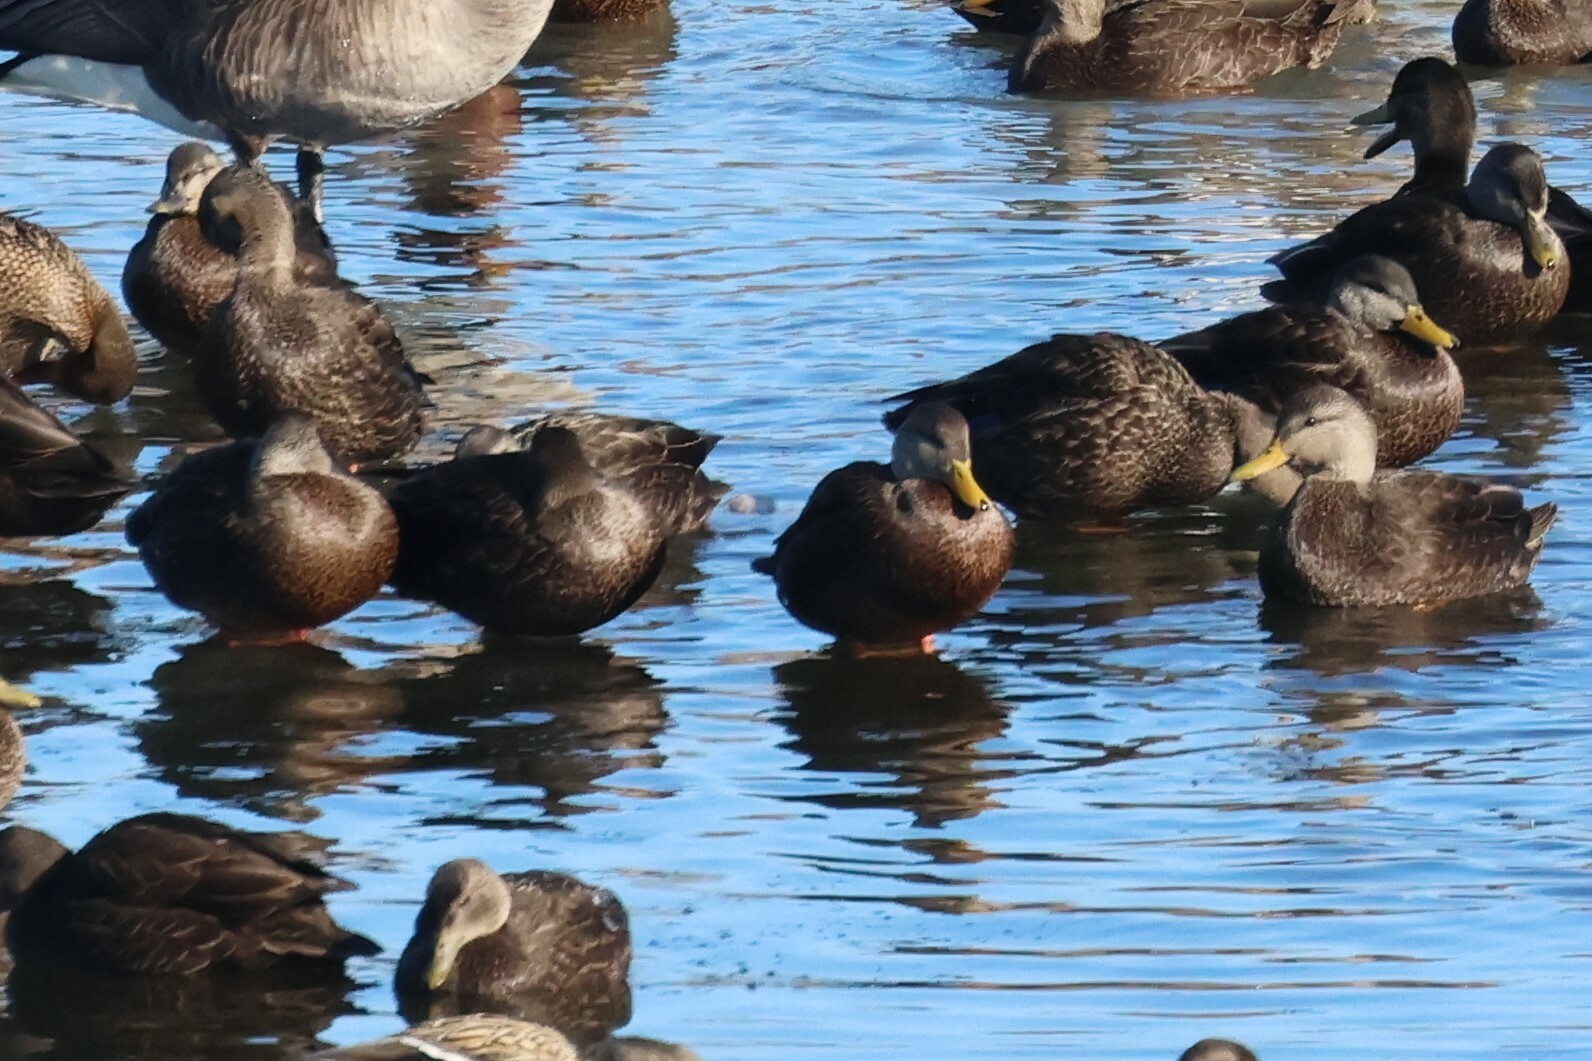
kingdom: Animalia
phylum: Chordata
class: Aves
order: Anseriformes
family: Anatidae
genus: Anas
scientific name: Anas rubripes
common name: American black duck
